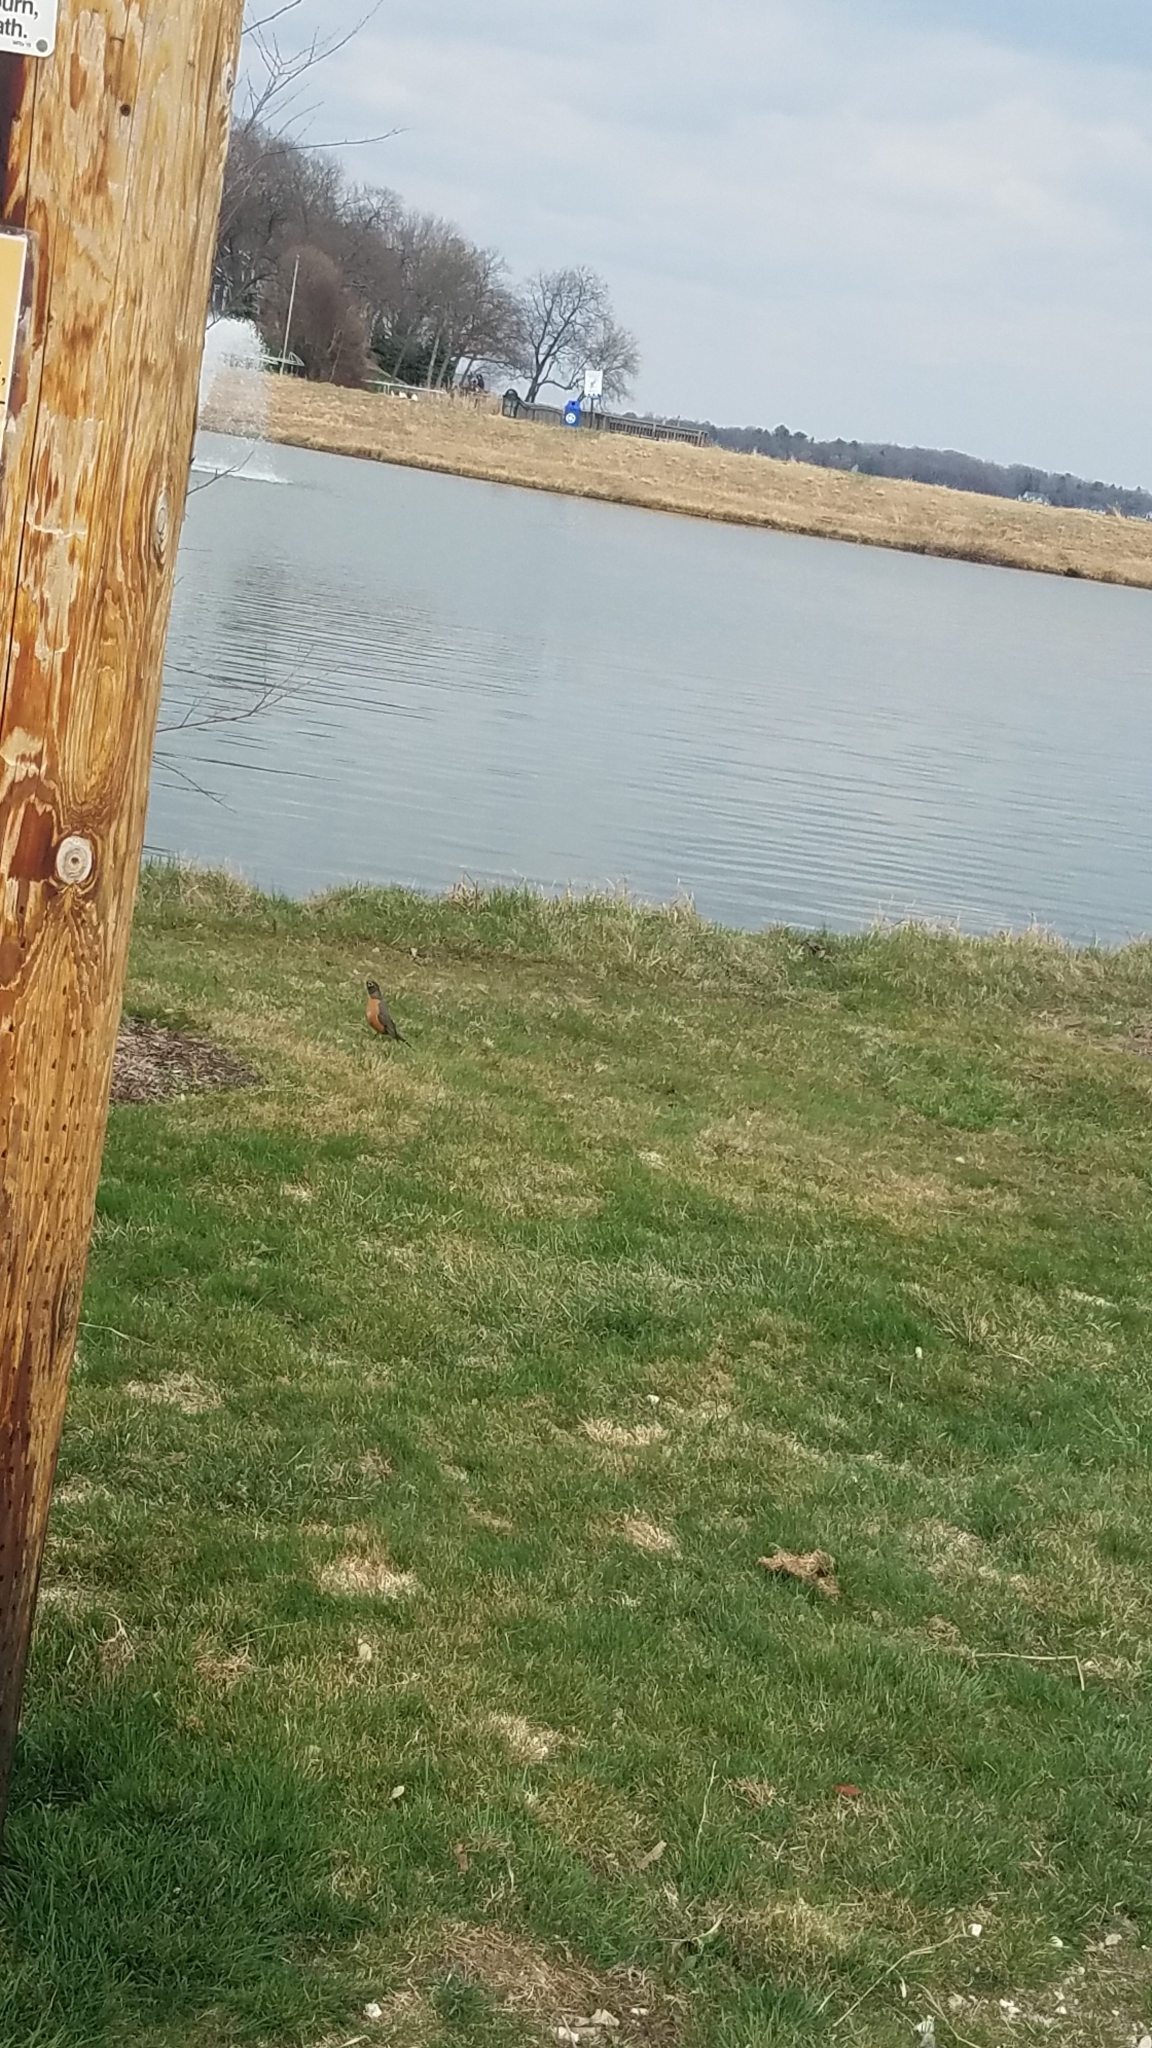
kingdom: Animalia
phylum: Chordata
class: Aves
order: Passeriformes
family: Turdidae
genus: Turdus
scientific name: Turdus migratorius
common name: American robin
